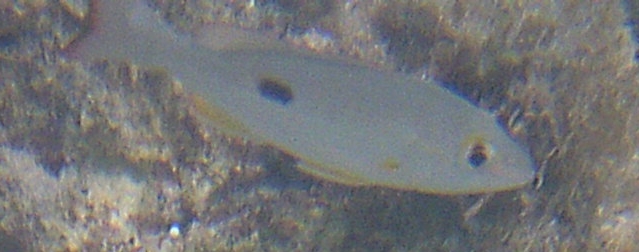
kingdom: Animalia
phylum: Chordata
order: Perciformes
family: Lutjanidae
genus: Lutjanus
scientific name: Lutjanus mahogoni
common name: Spot snapper
